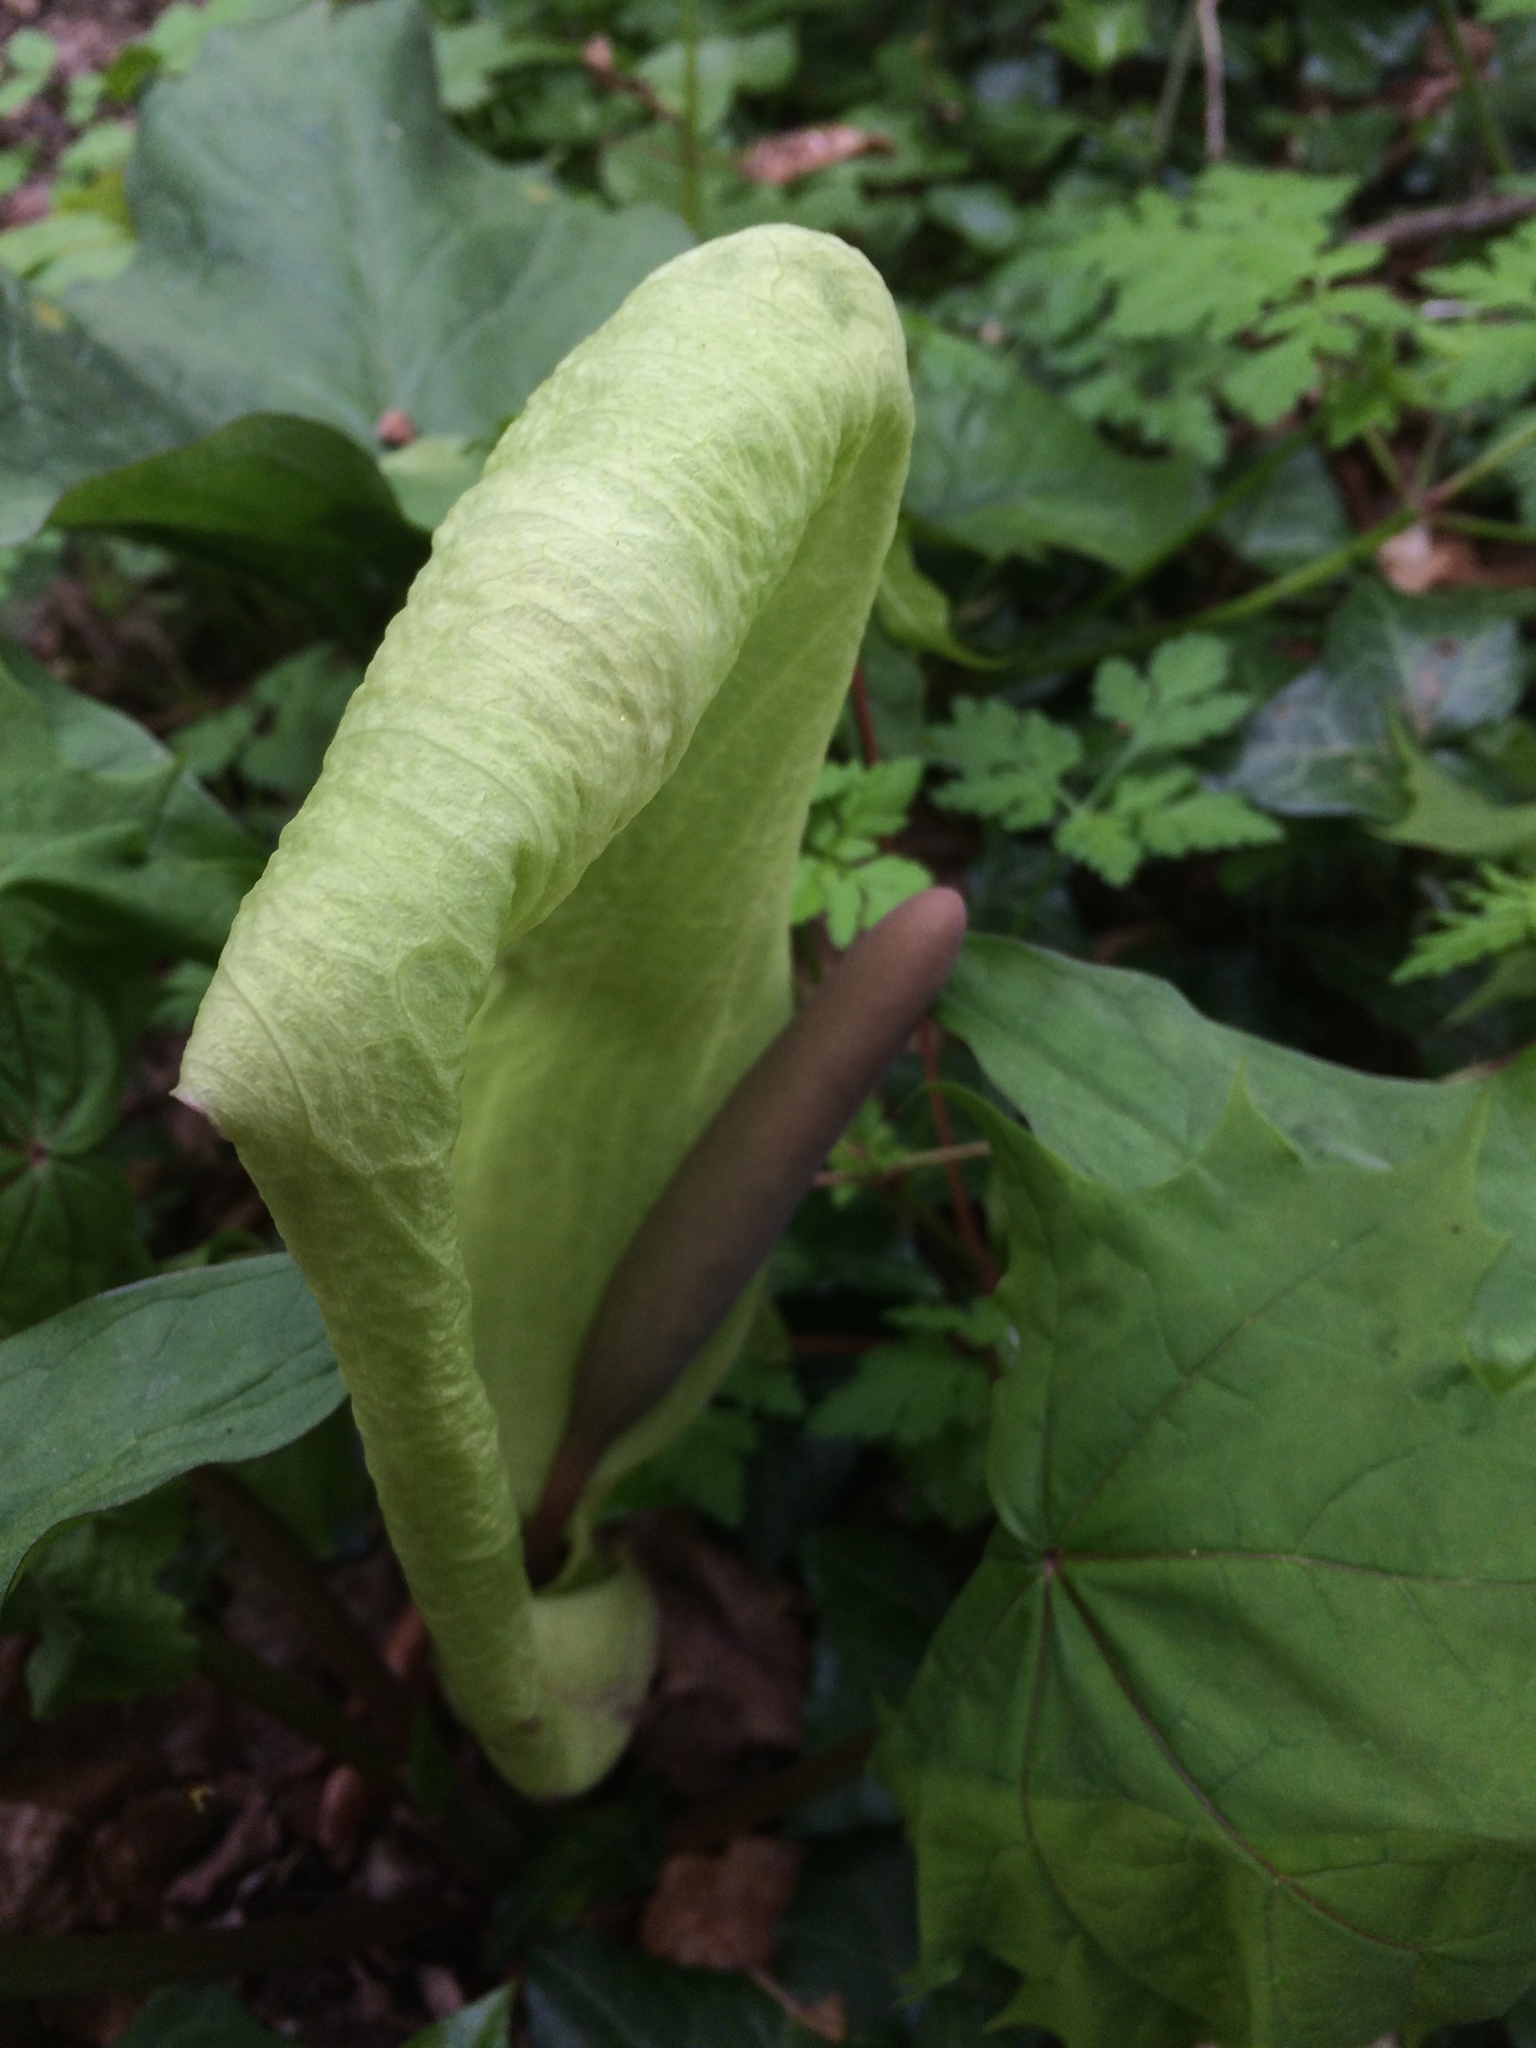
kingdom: Plantae
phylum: Tracheophyta
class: Liliopsida
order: Alismatales
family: Araceae
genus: Arum
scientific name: Arum maculatum
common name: Lords-and-ladies
